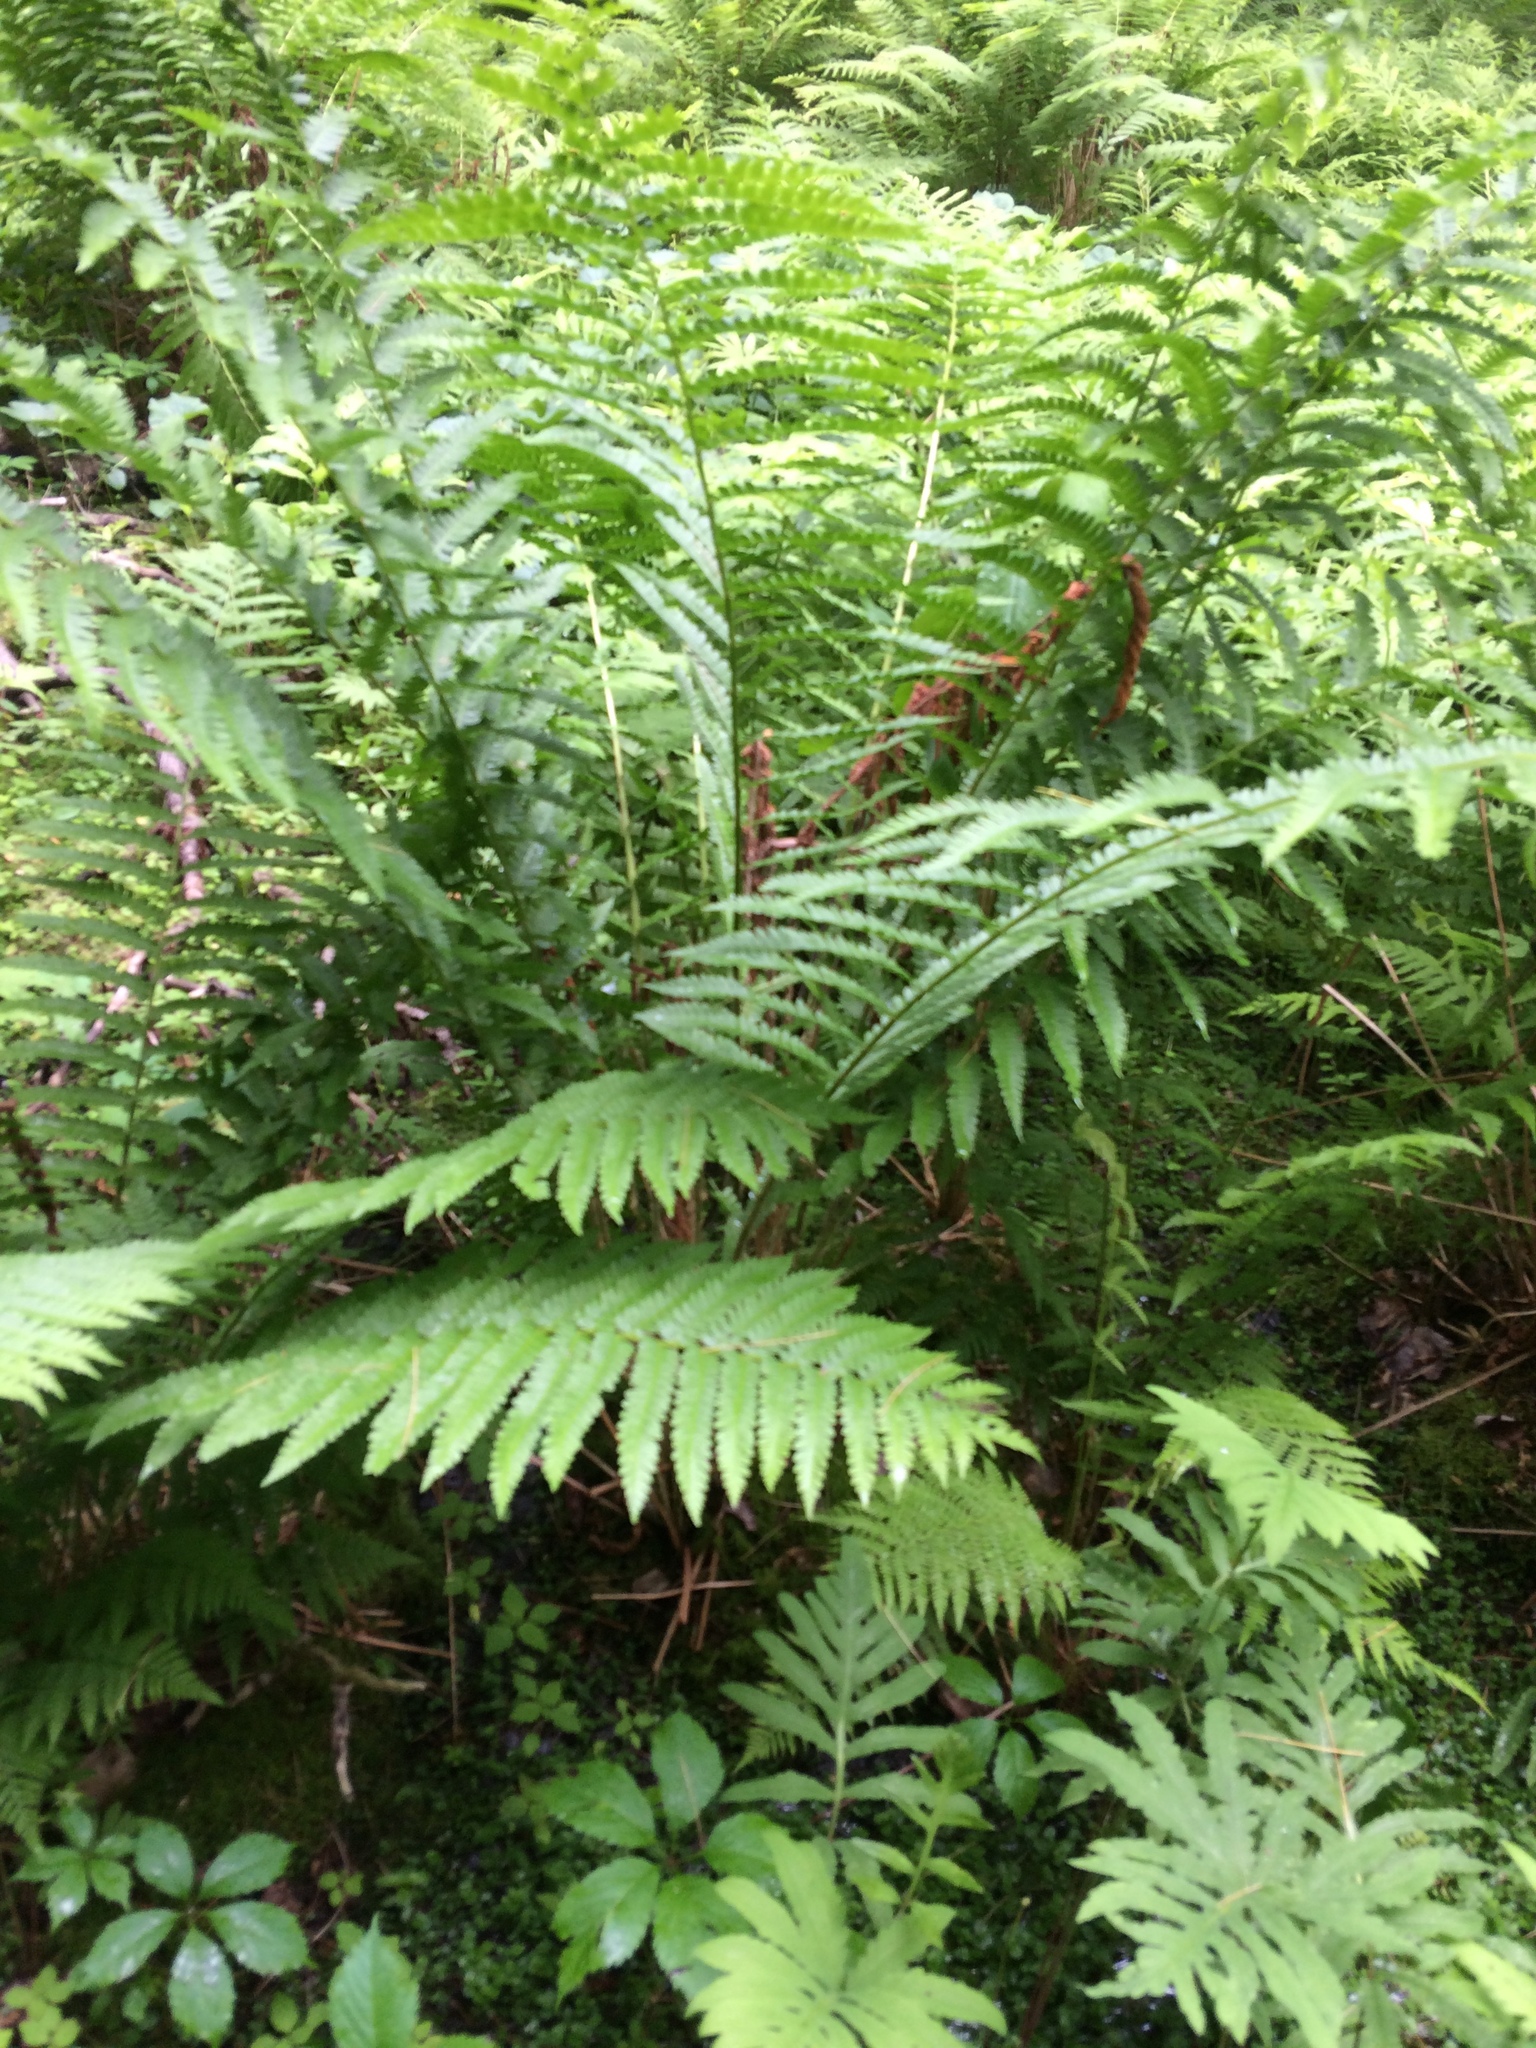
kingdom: Plantae
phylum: Tracheophyta
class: Polypodiopsida
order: Osmundales
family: Osmundaceae
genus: Osmundastrum
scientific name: Osmundastrum cinnamomeum
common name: Cinnamon fern
